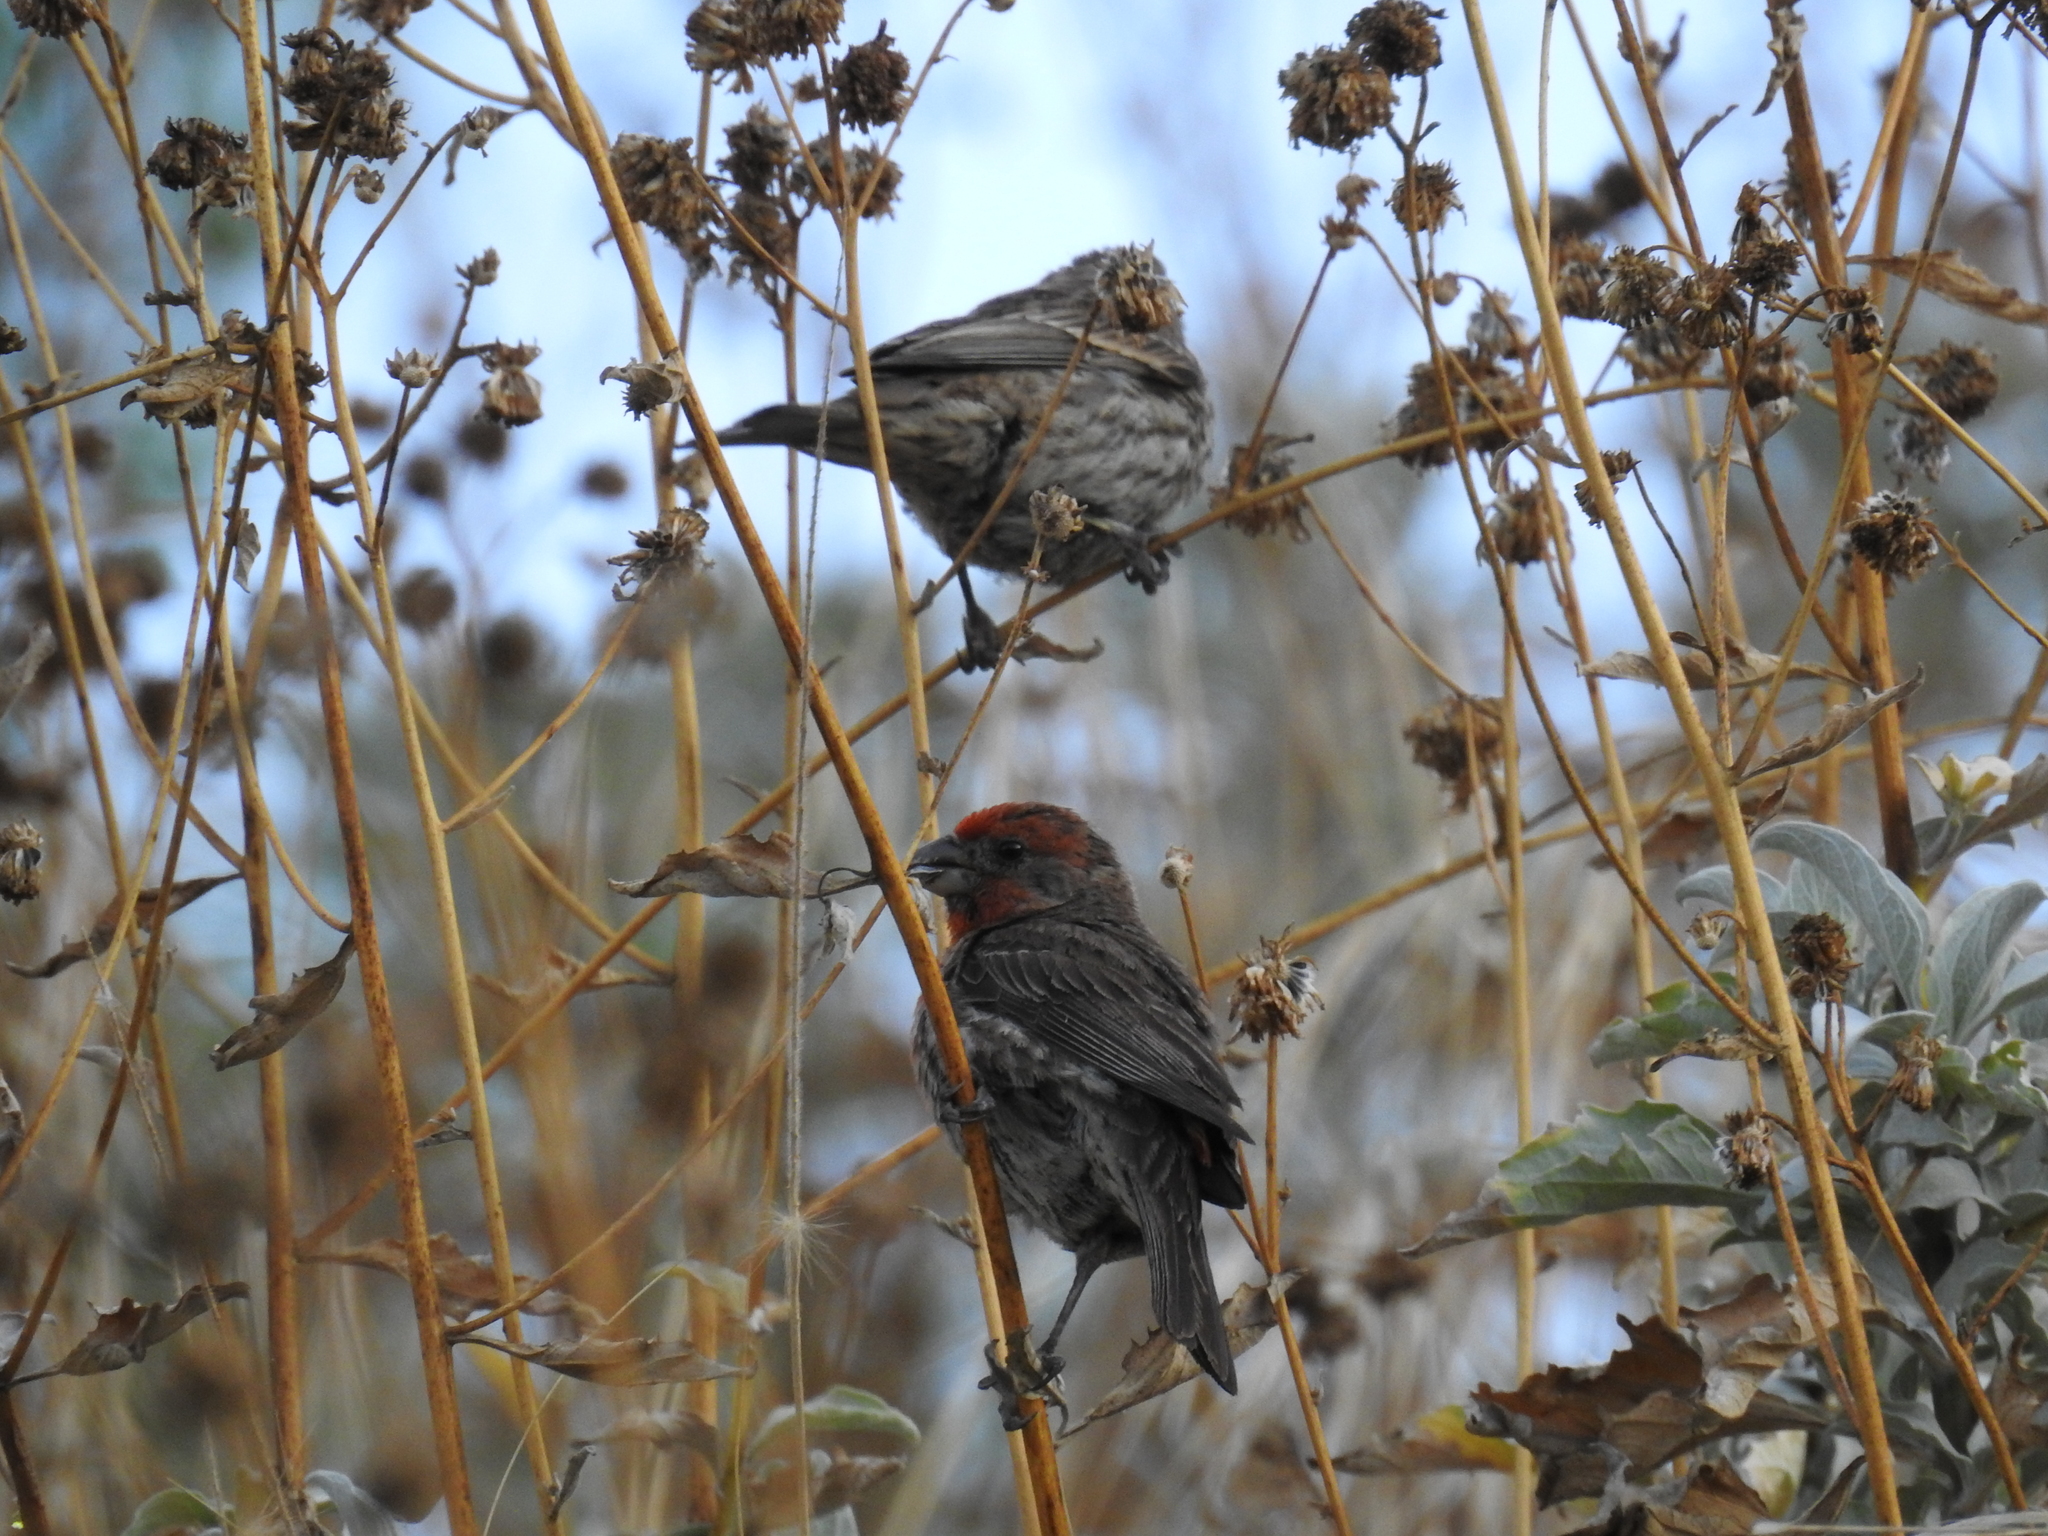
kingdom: Animalia
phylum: Chordata
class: Aves
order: Passeriformes
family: Fringillidae
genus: Haemorhous
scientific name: Haemorhous mexicanus
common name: House finch
